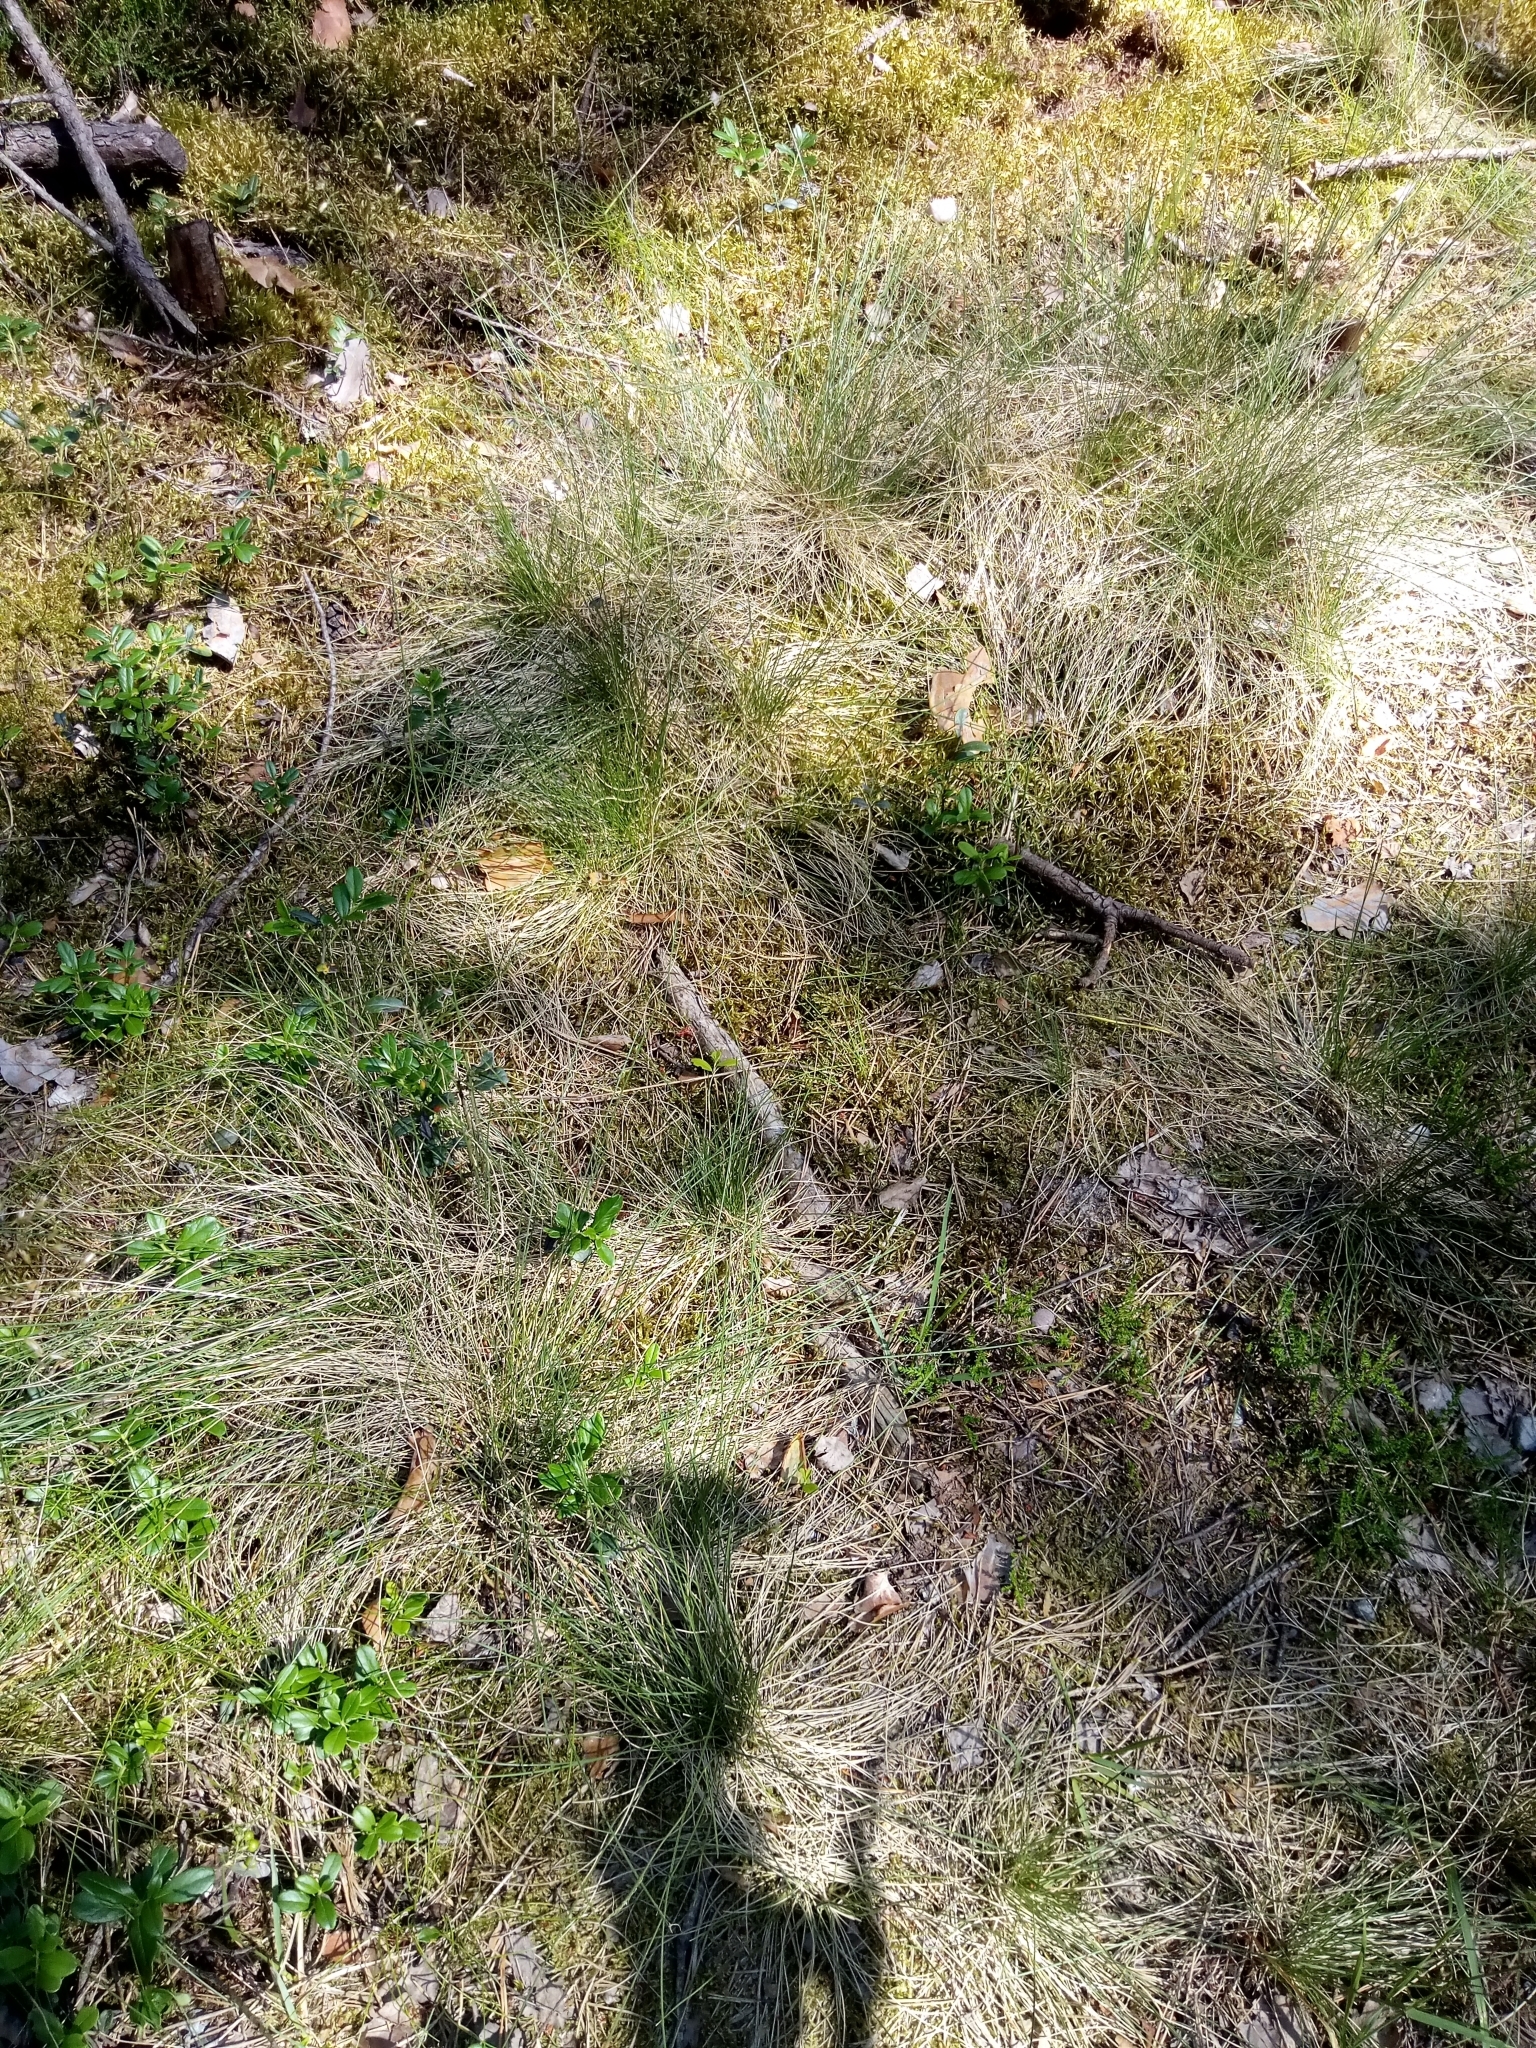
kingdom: Plantae
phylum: Tracheophyta
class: Liliopsida
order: Poales
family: Poaceae
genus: Nardus
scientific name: Nardus stricta
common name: Mat-grass
